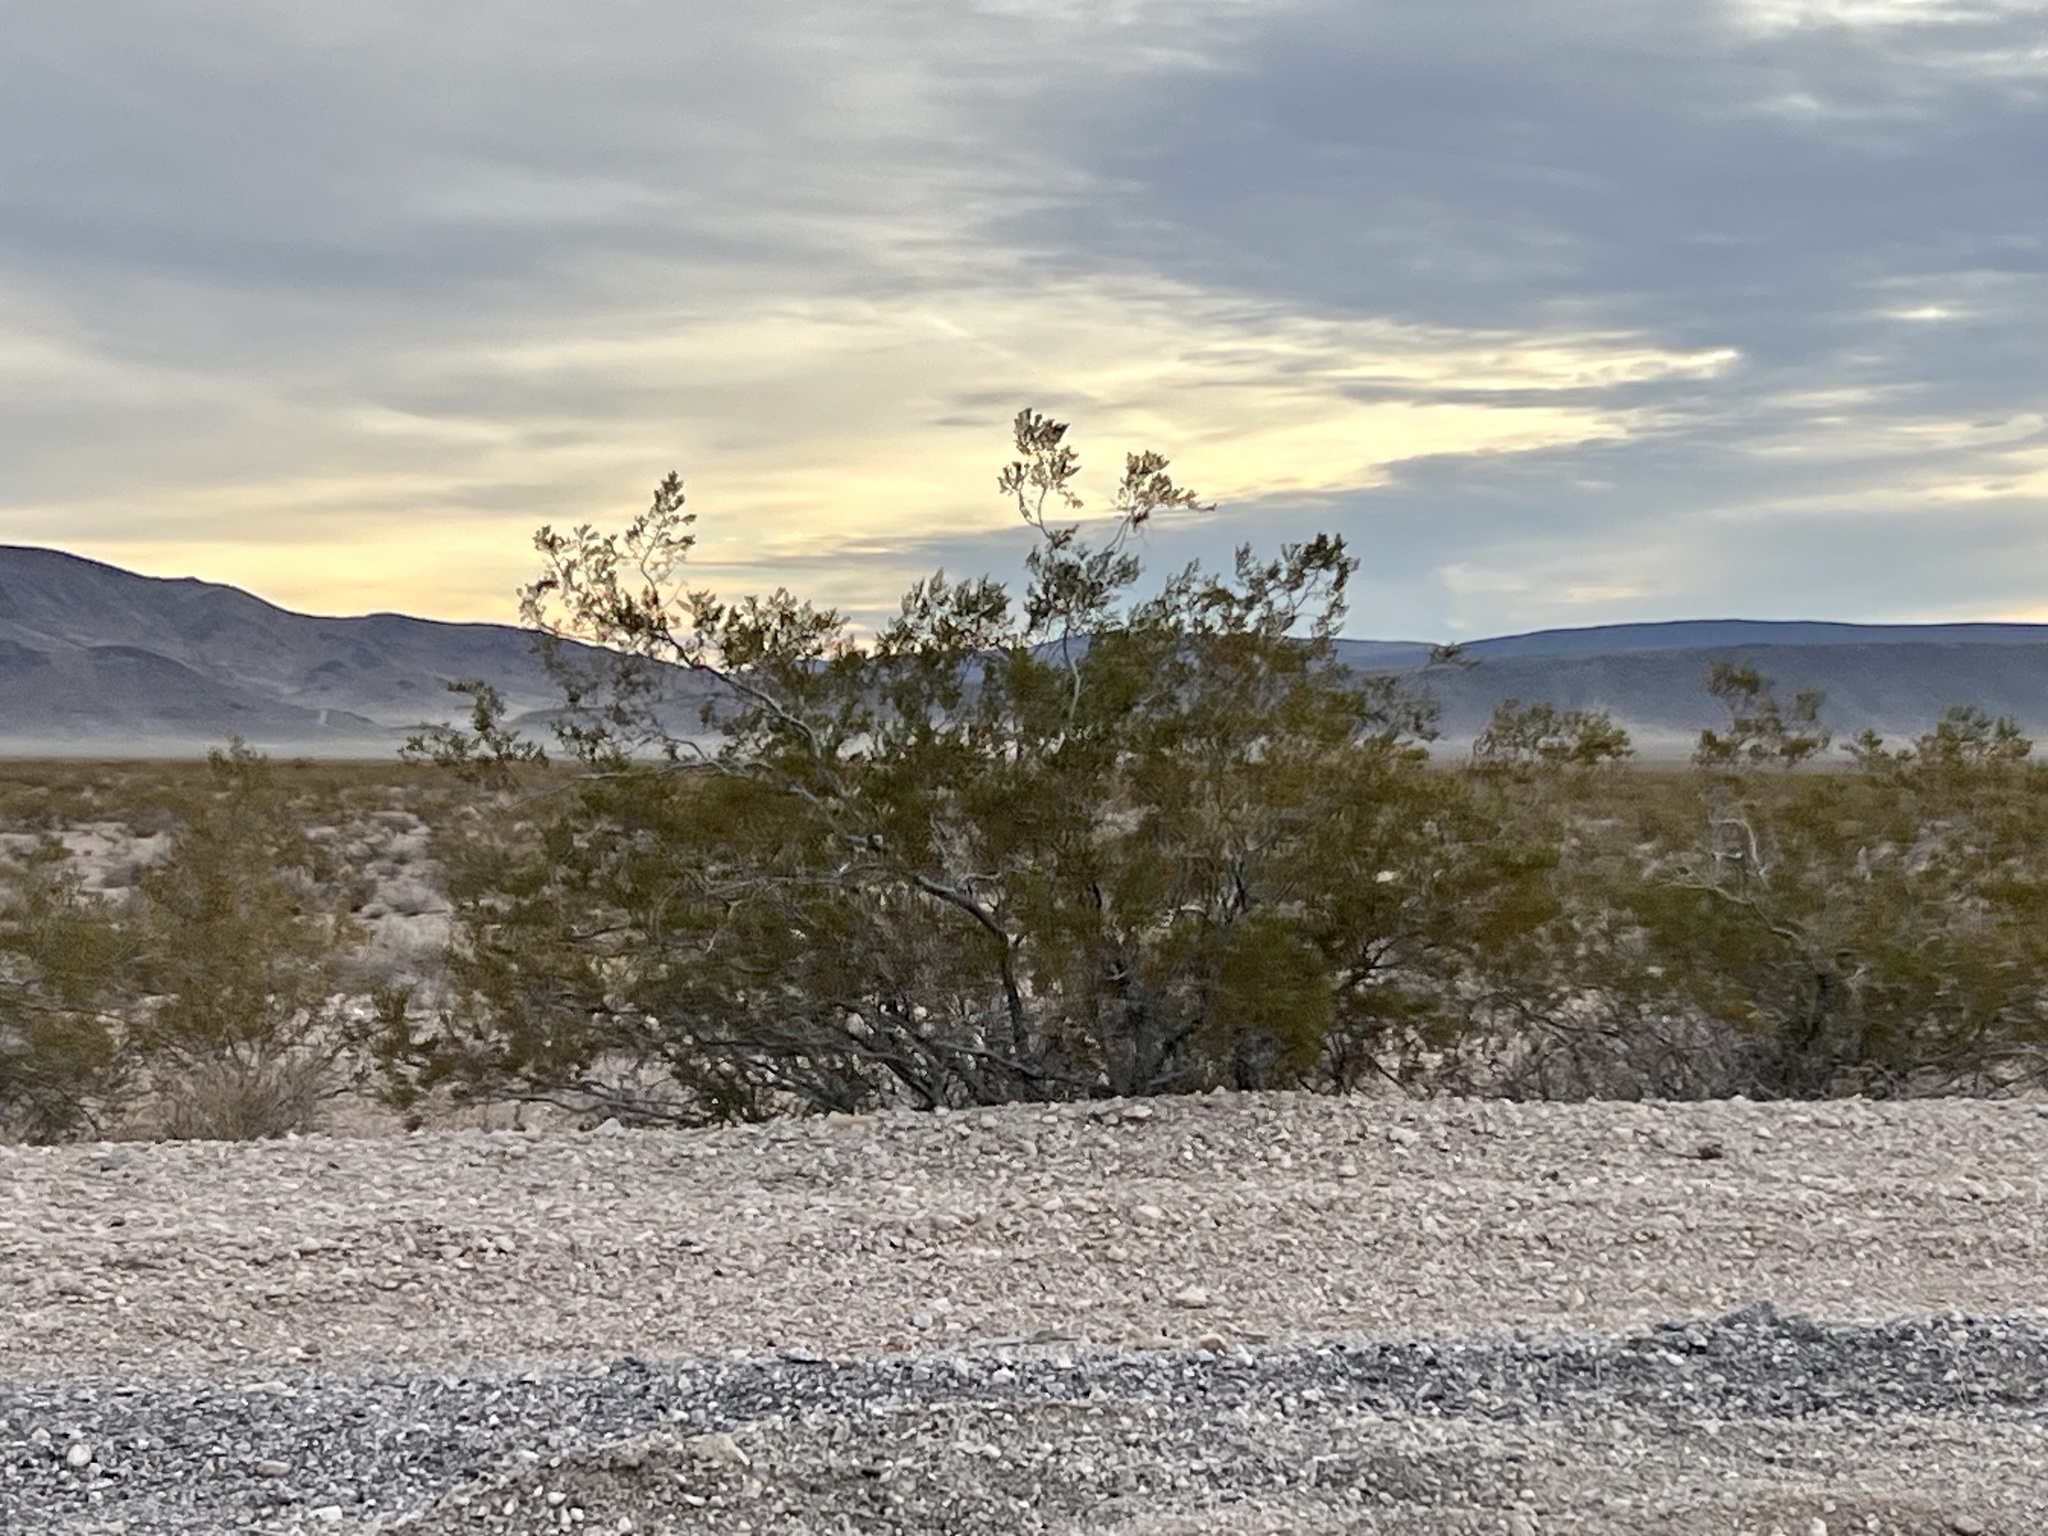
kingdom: Plantae
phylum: Tracheophyta
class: Magnoliopsida
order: Zygophyllales
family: Zygophyllaceae
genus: Larrea
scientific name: Larrea tridentata
